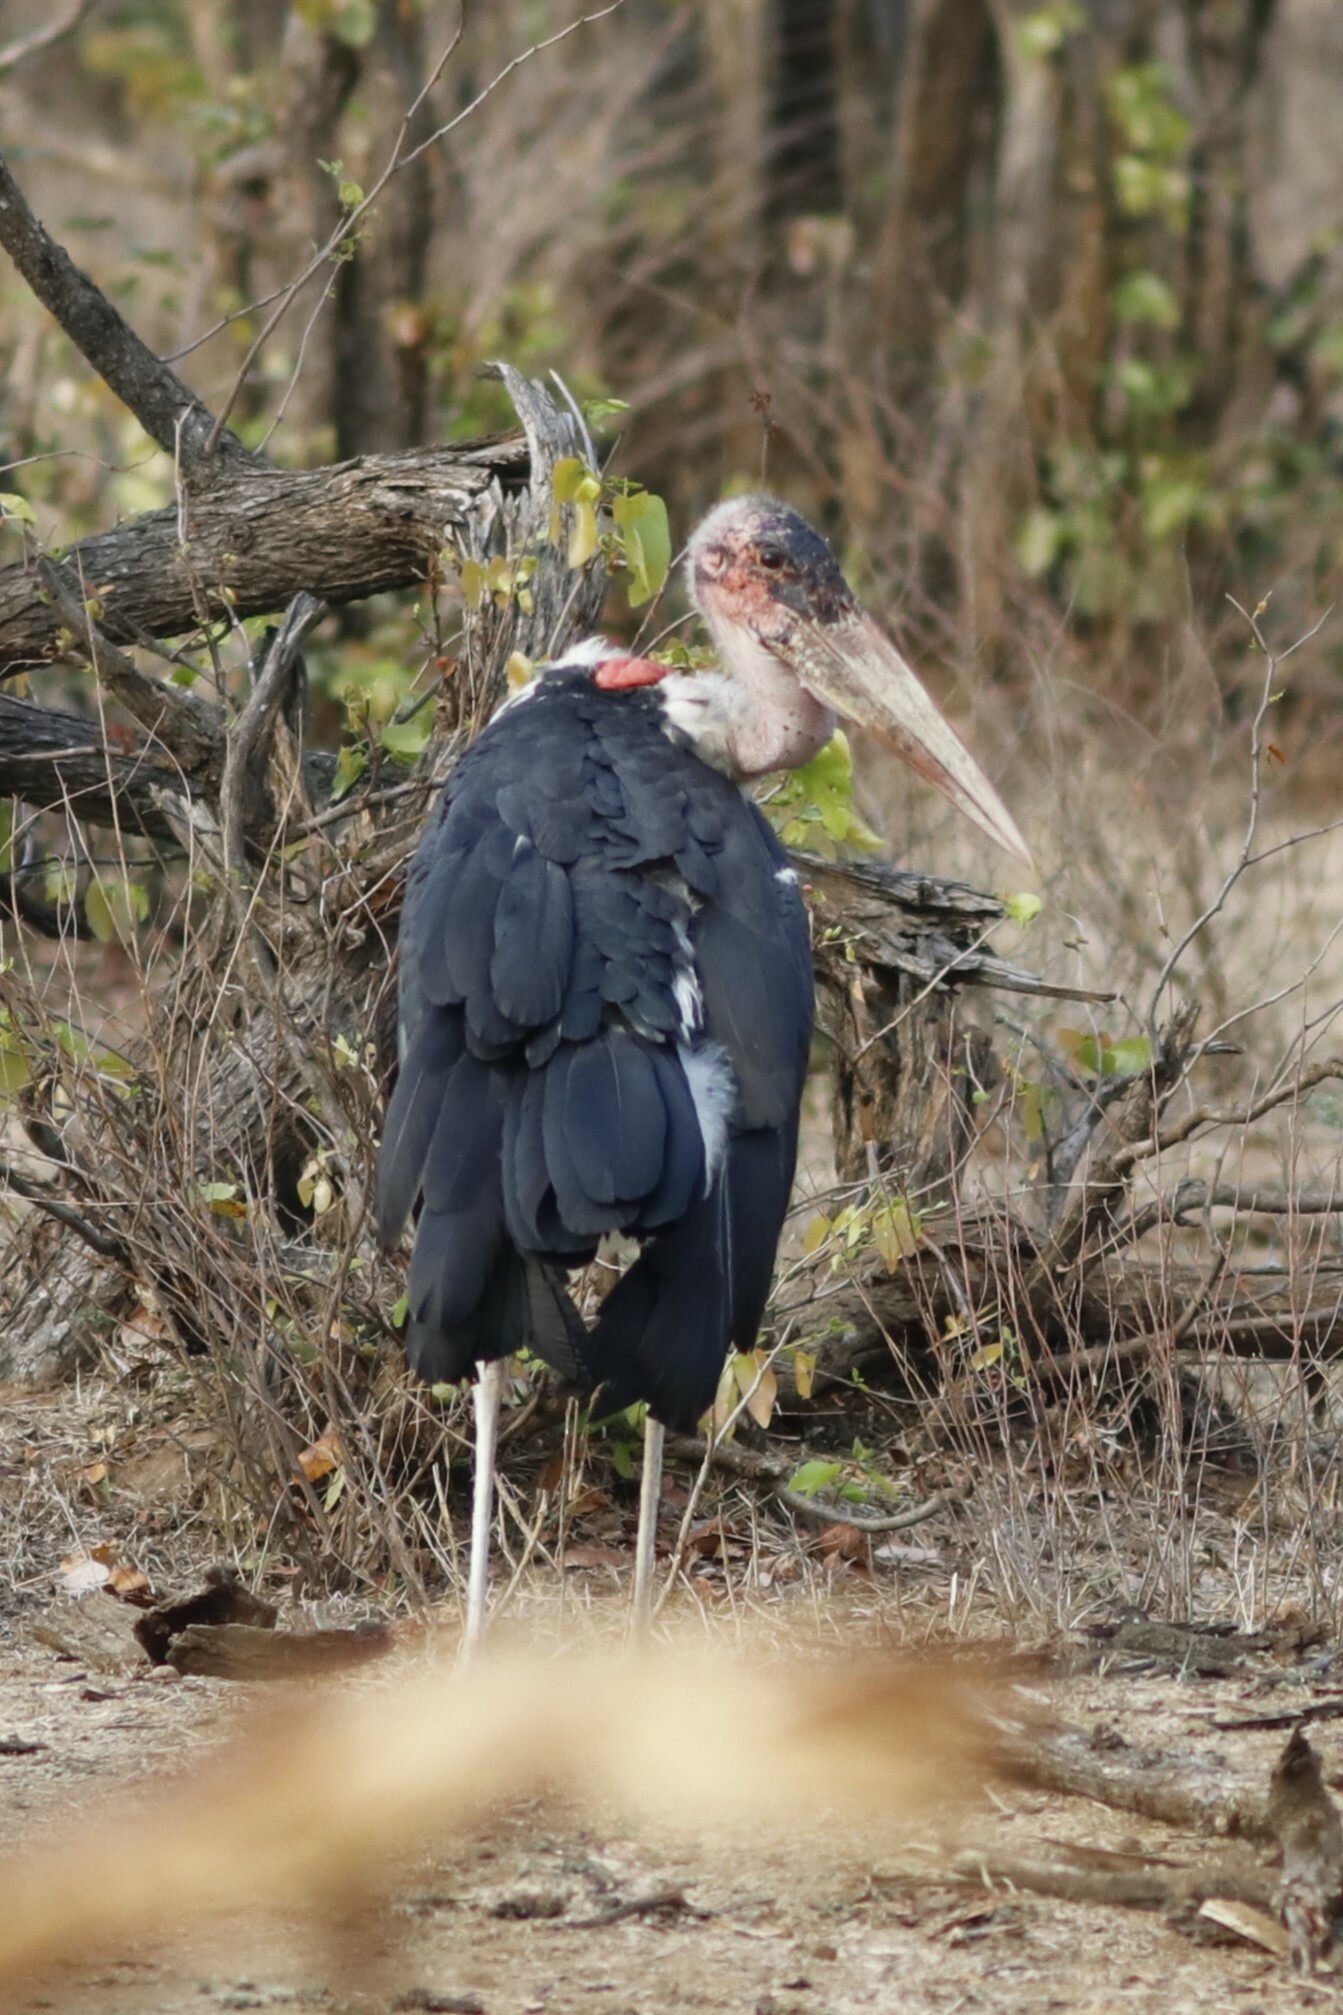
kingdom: Animalia
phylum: Chordata
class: Aves
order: Ciconiiformes
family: Ciconiidae
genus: Leptoptilos
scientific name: Leptoptilos crumenifer
